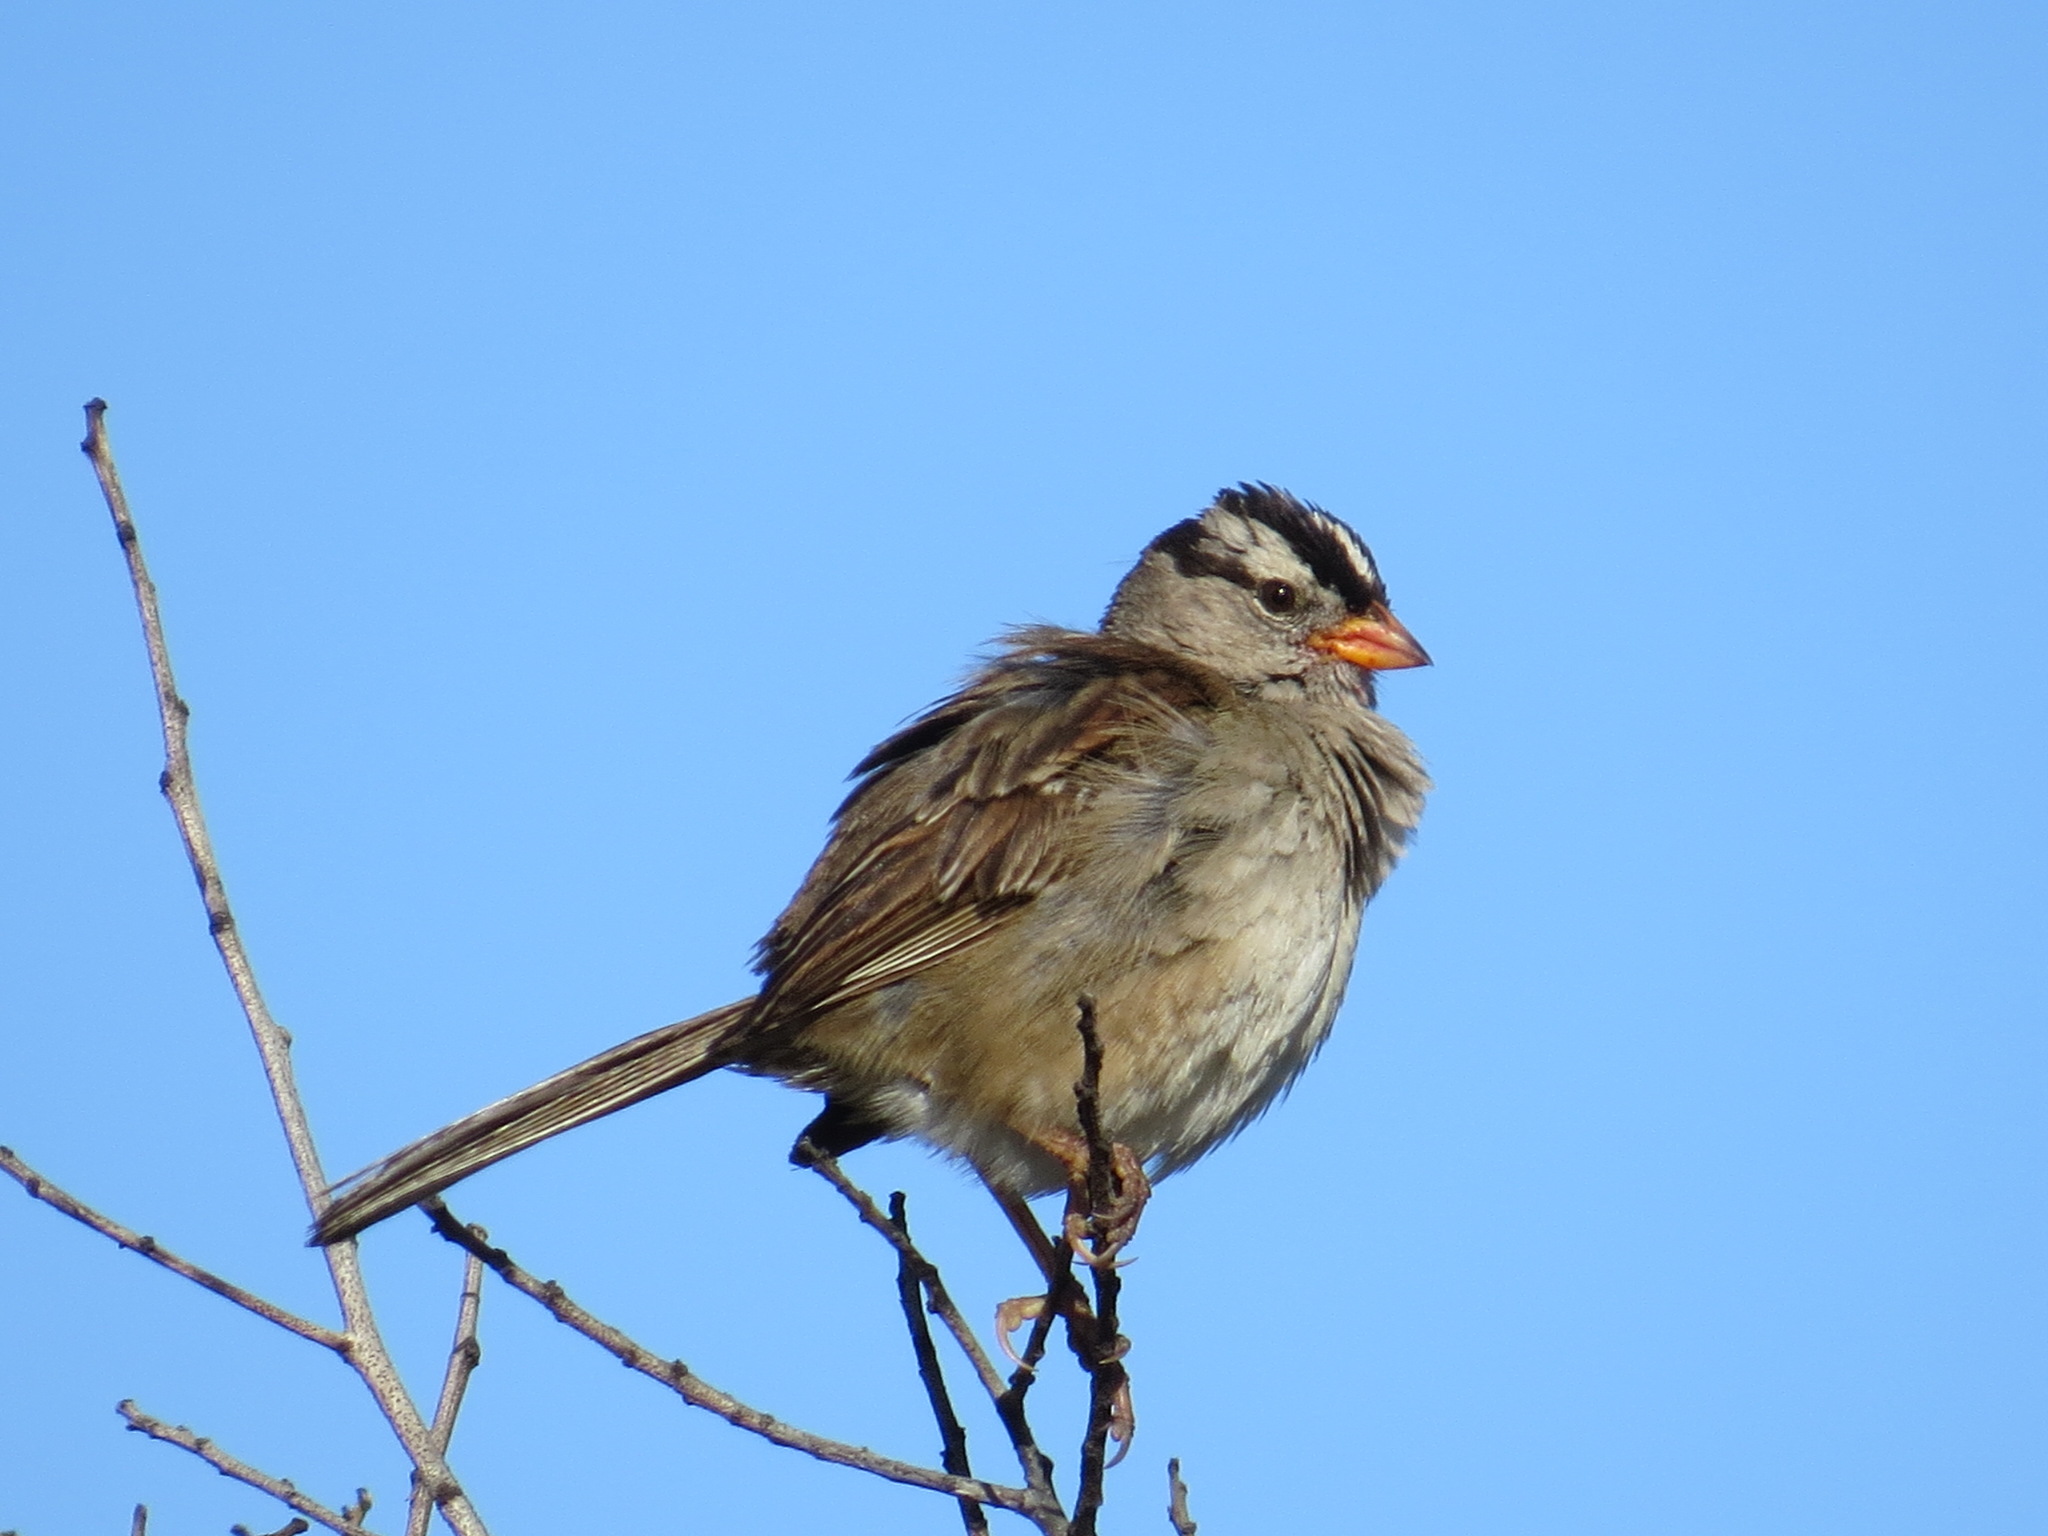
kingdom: Animalia
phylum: Chordata
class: Aves
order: Passeriformes
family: Passerellidae
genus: Zonotrichia
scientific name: Zonotrichia leucophrys
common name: White-crowned sparrow
